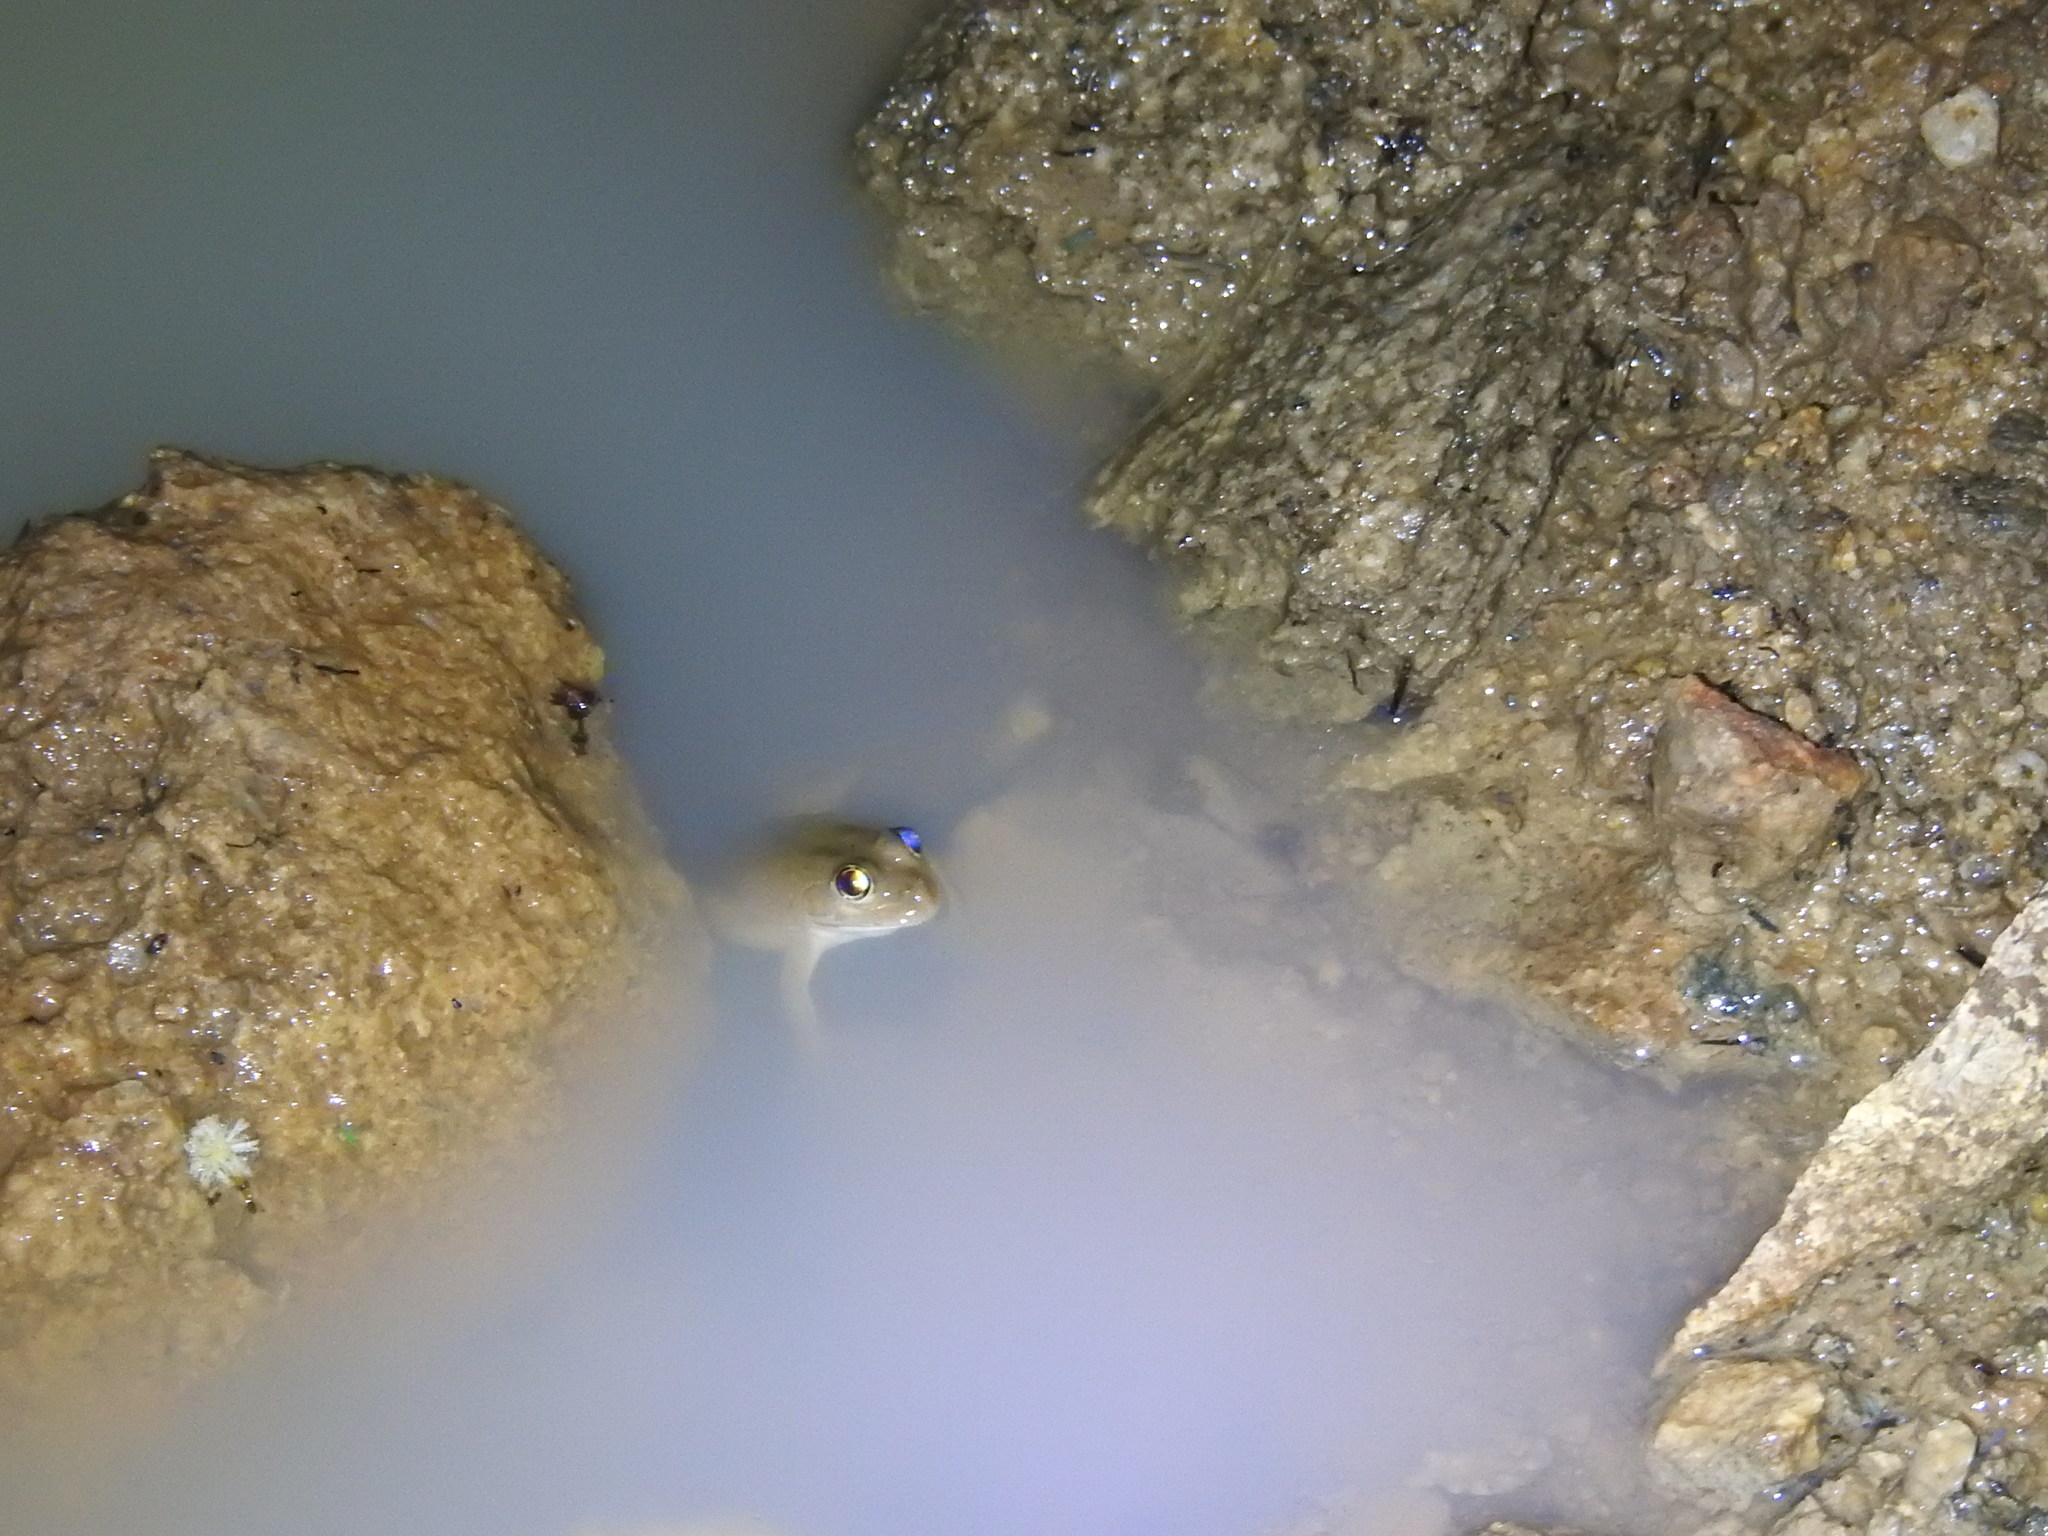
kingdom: Animalia
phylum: Chordata
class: Amphibia
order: Anura
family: Dicroglossidae
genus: Euphlyctis
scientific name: Euphlyctis cyanophlyctis
